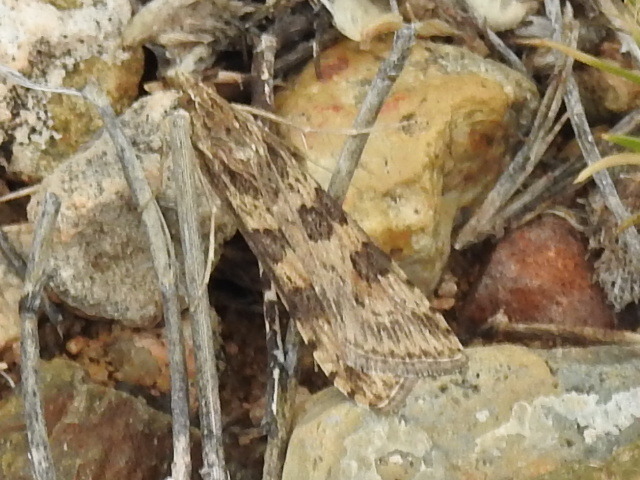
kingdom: Animalia
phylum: Arthropoda
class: Insecta
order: Lepidoptera
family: Crambidae
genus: Nomophila
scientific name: Nomophila nearctica
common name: American rush veneer
